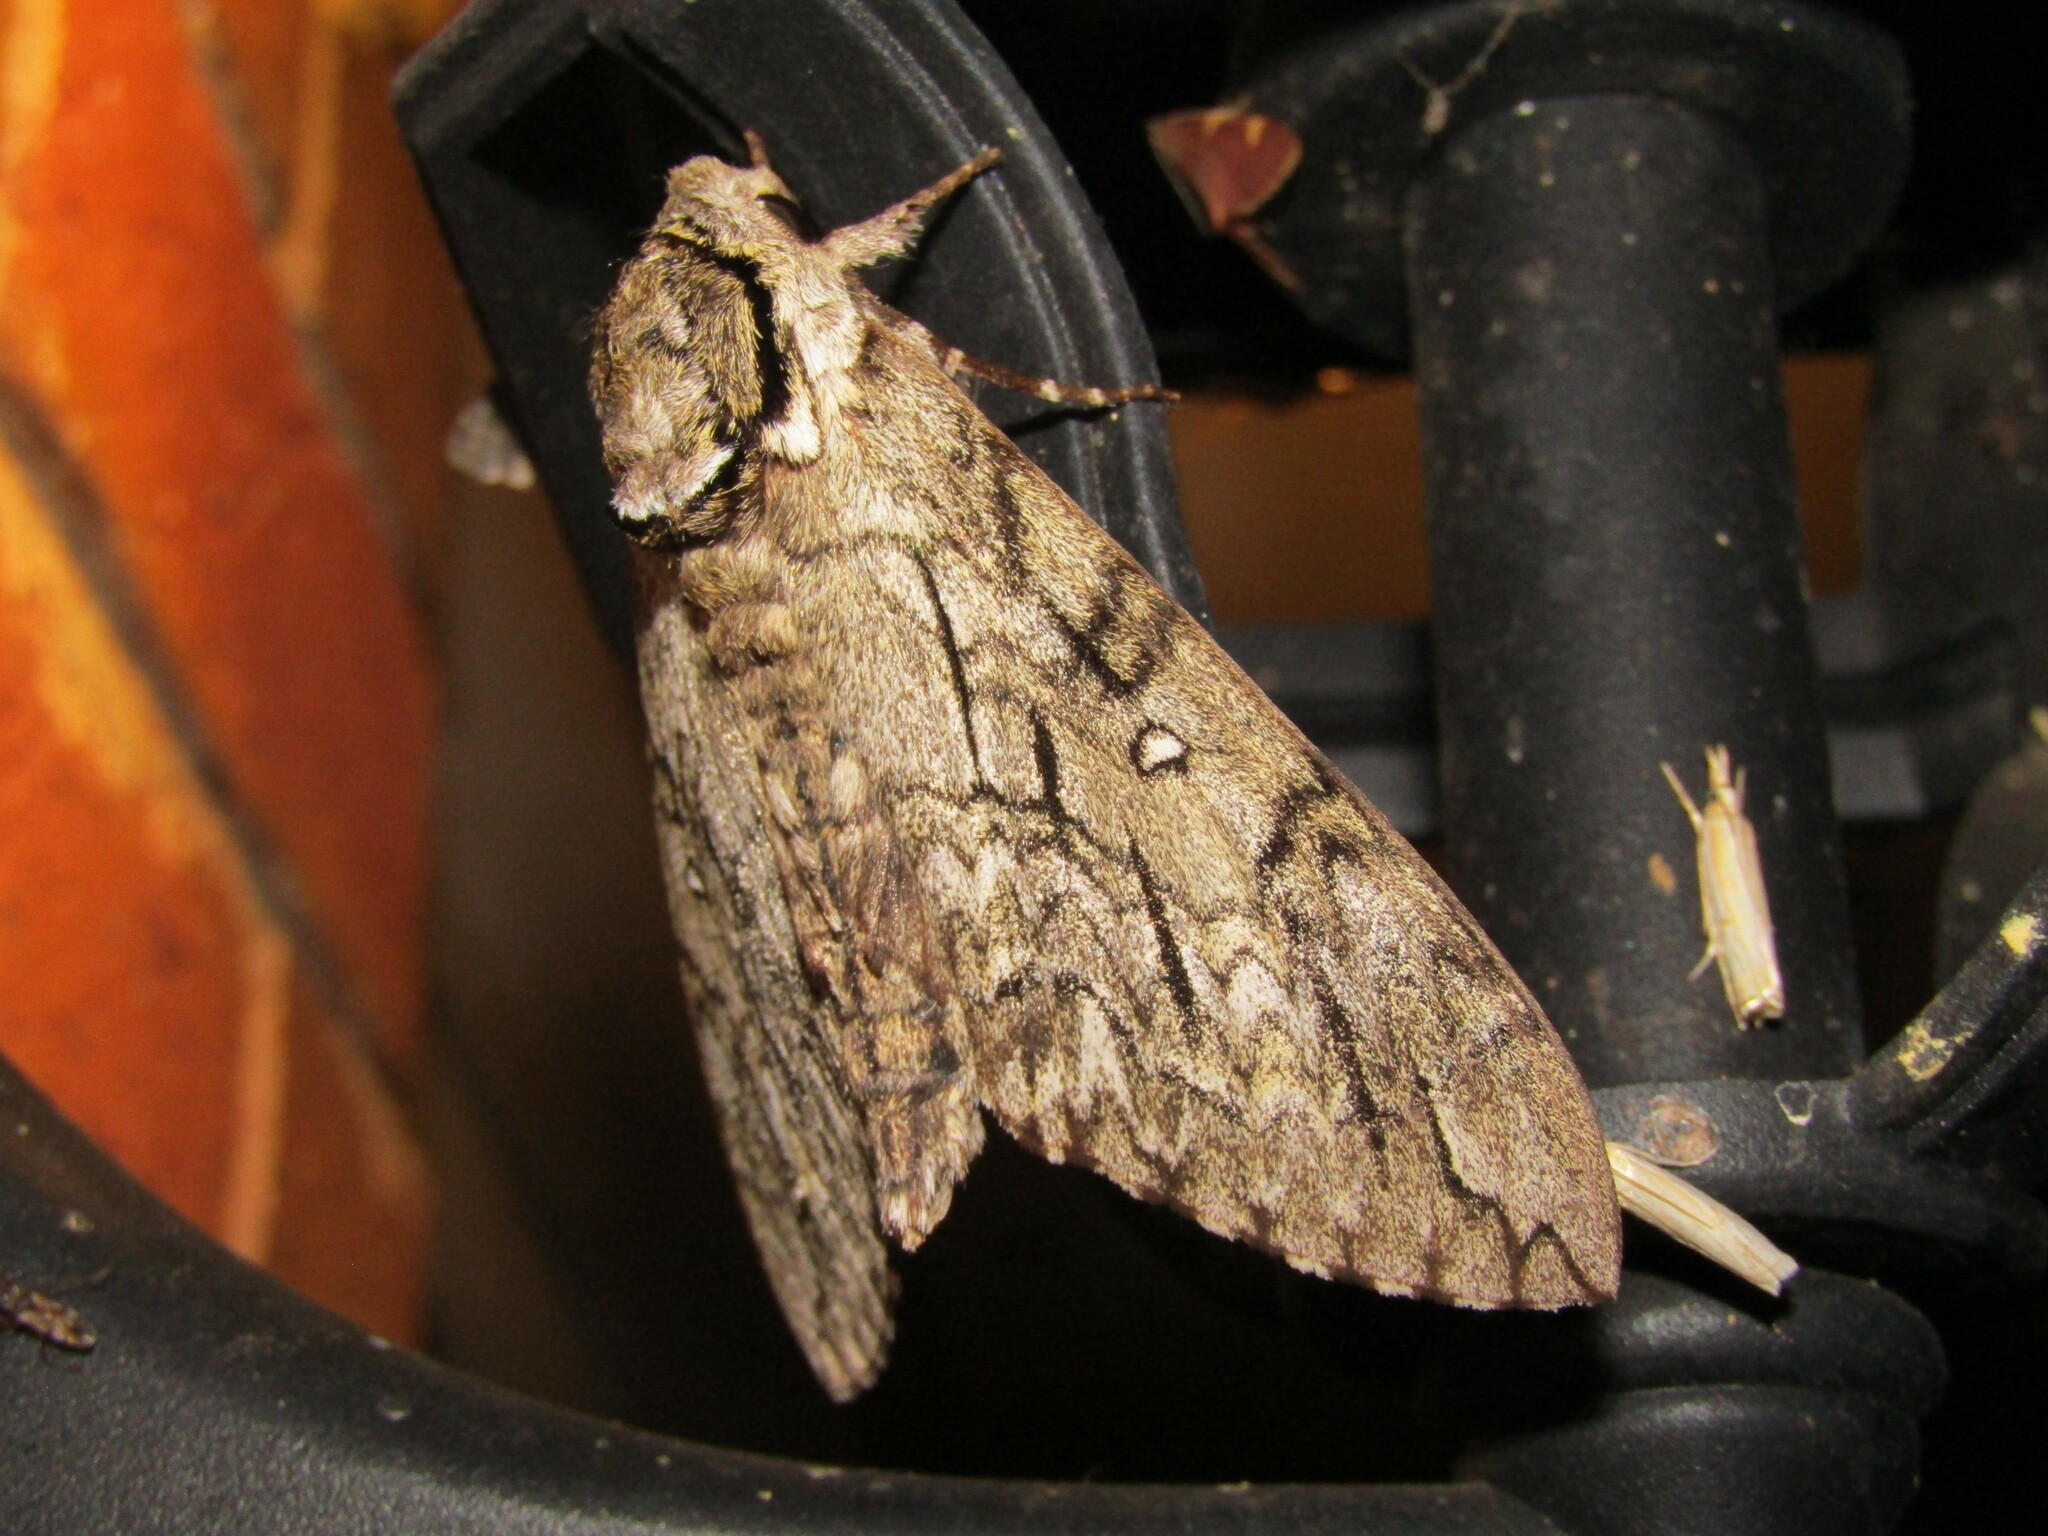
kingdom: Animalia
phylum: Arthropoda
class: Insecta
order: Lepidoptera
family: Sphingidae
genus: Ceratomia
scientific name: Ceratomia undulosa
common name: Waved sphinx
